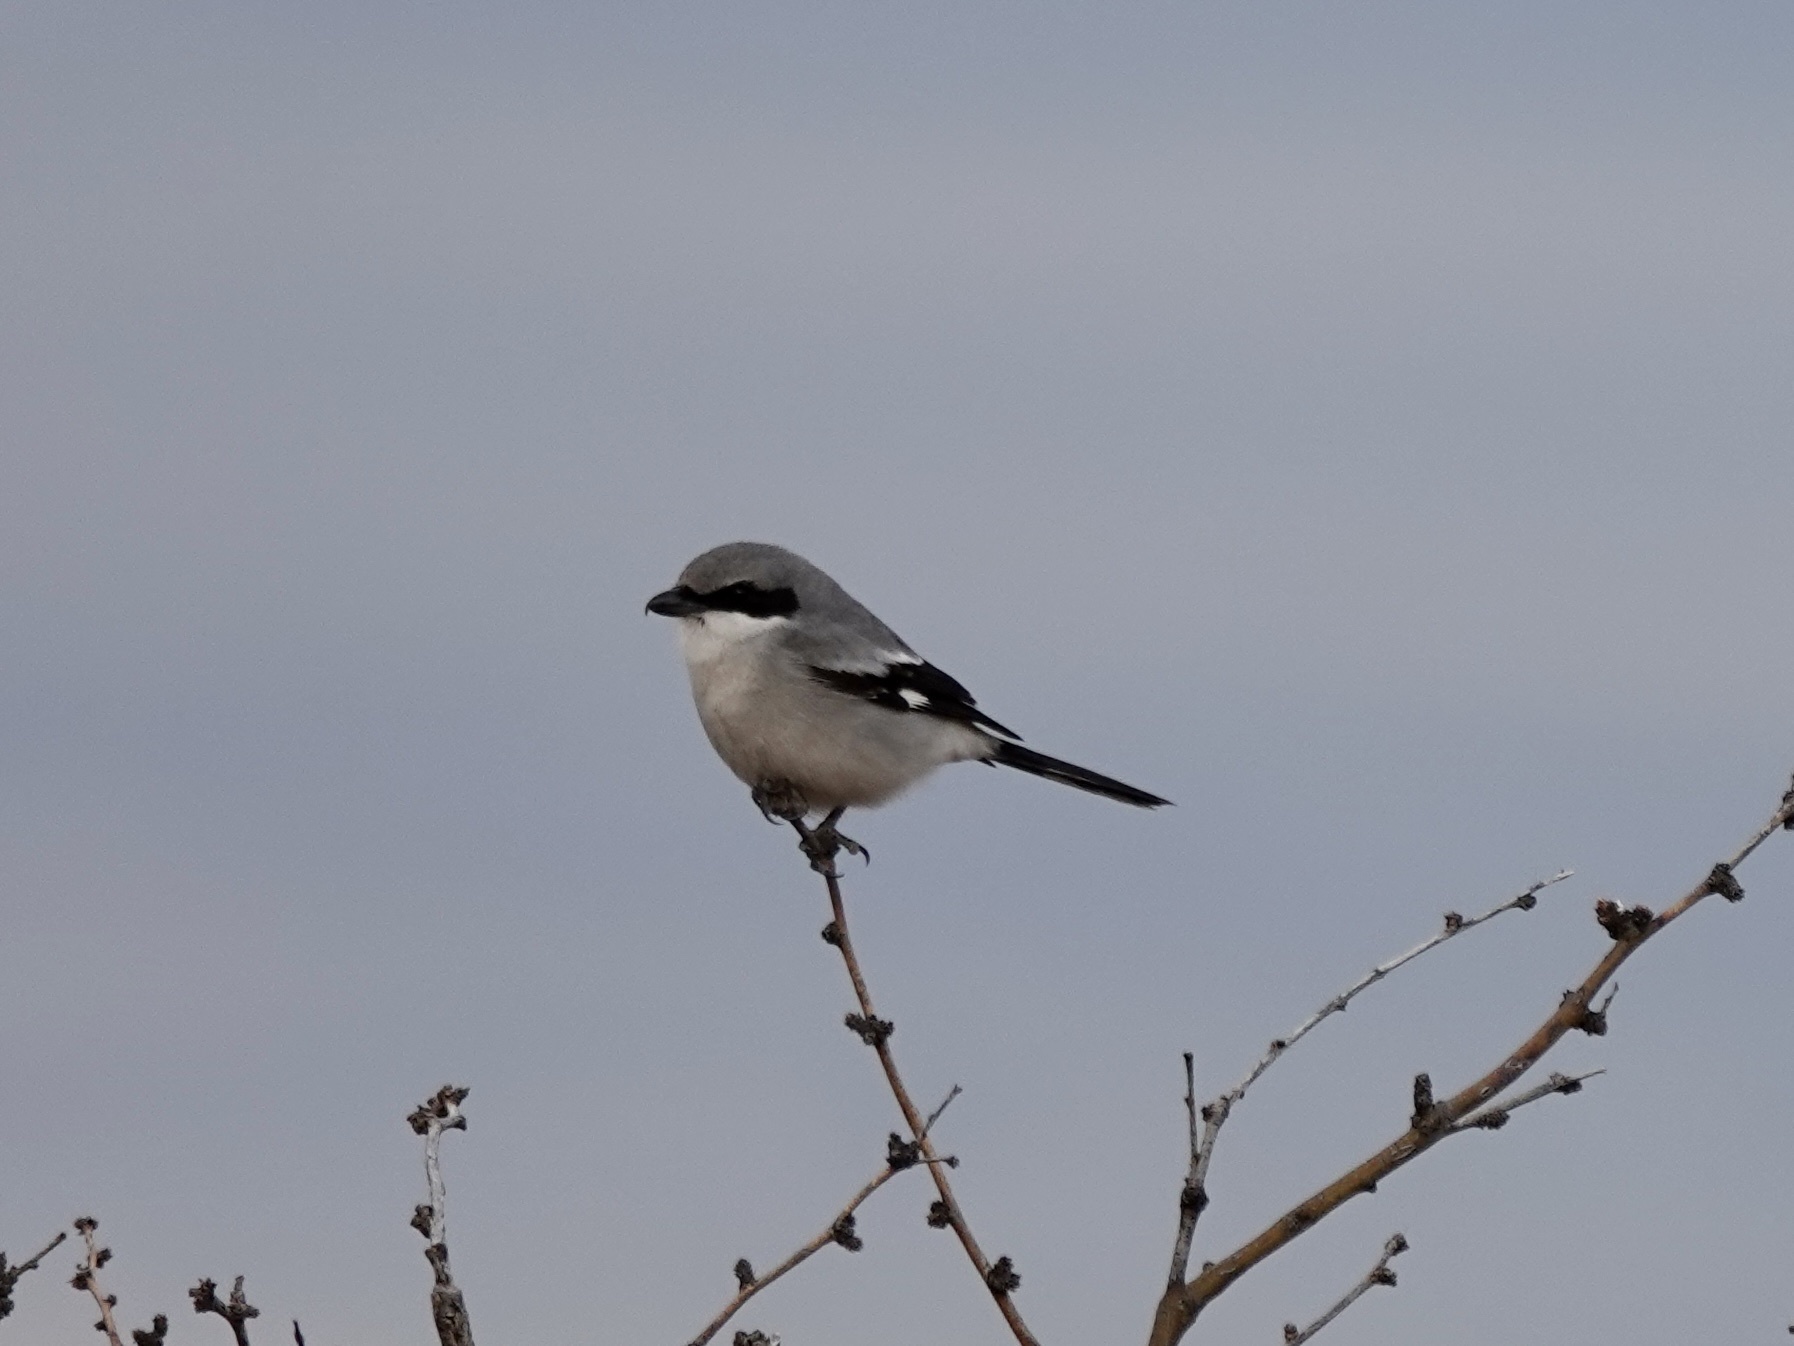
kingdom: Animalia
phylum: Chordata
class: Aves
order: Passeriformes
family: Laniidae
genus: Lanius
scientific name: Lanius ludovicianus
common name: Loggerhead shrike
